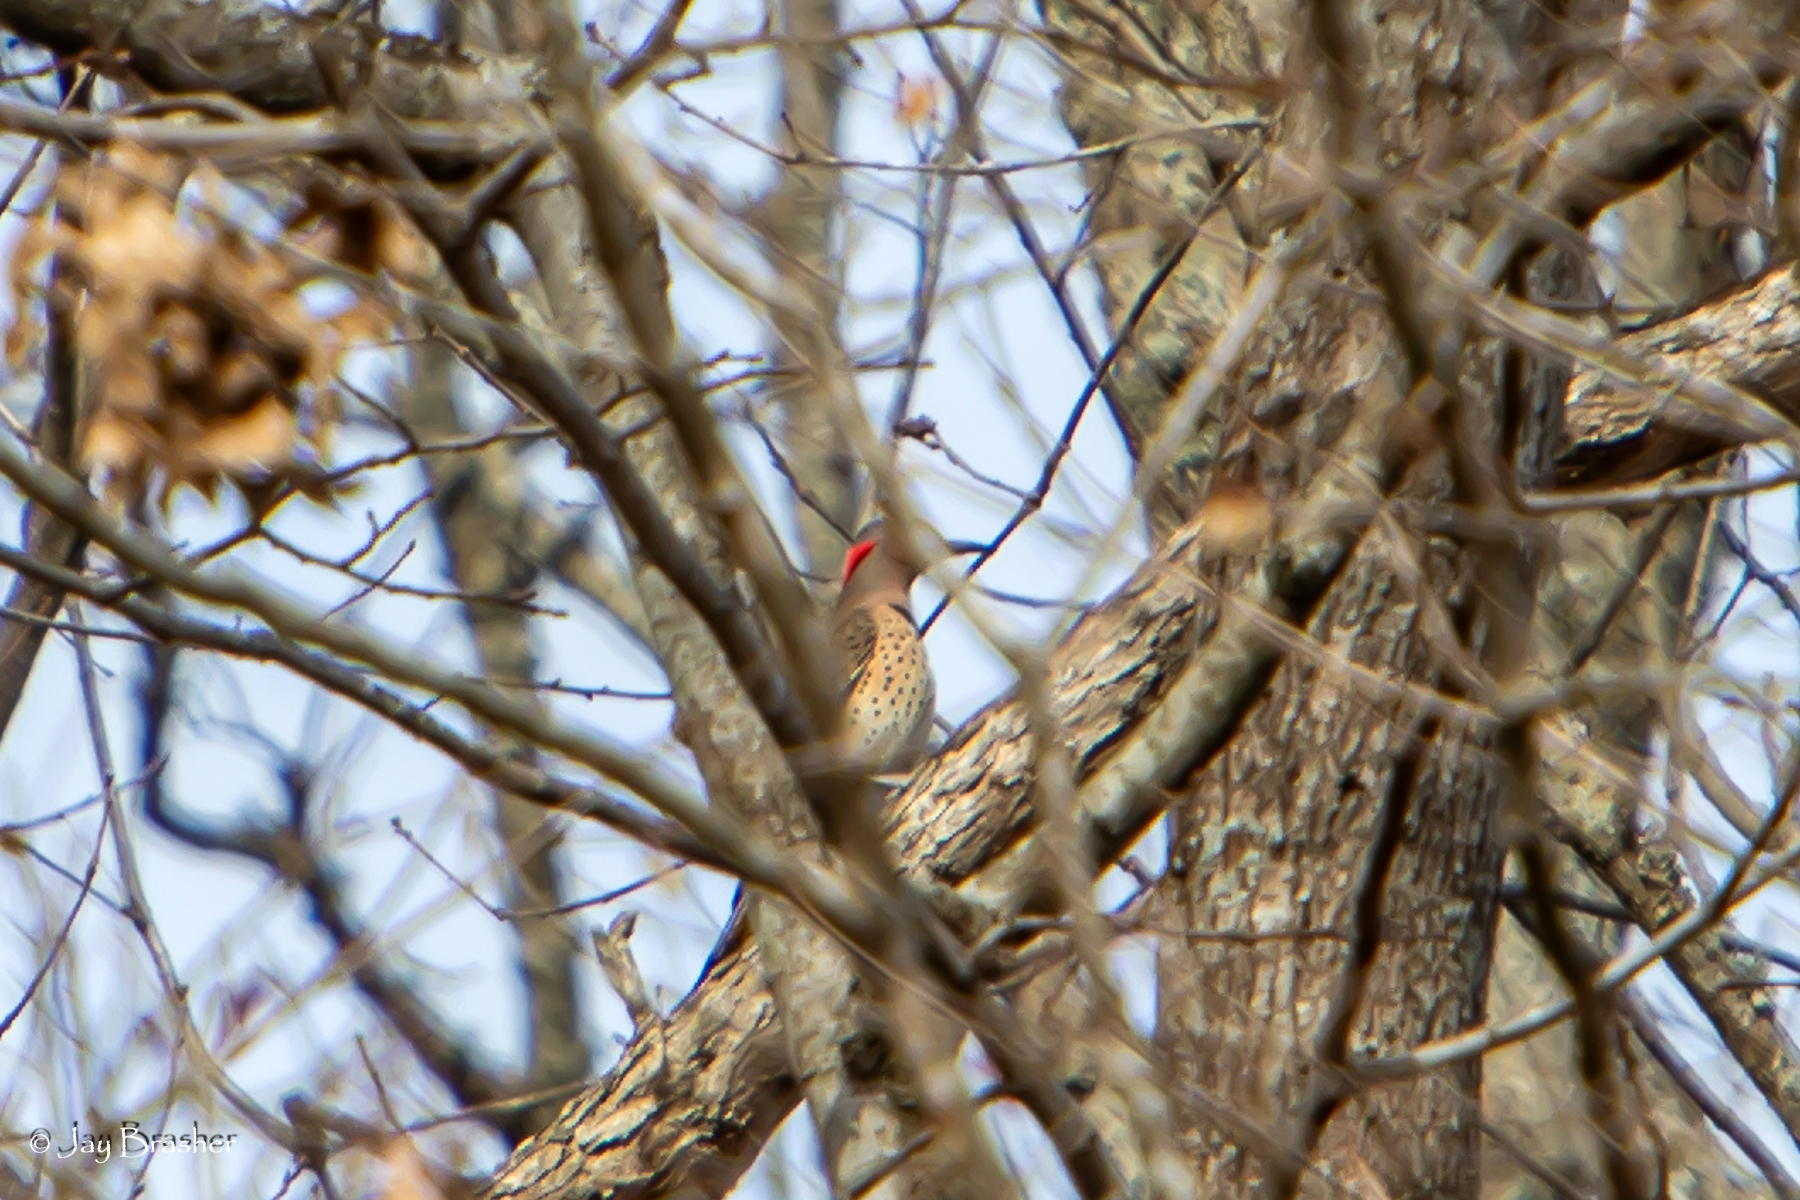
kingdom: Animalia
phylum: Chordata
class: Aves
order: Piciformes
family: Picidae
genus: Colaptes
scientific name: Colaptes auratus
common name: Northern flicker
